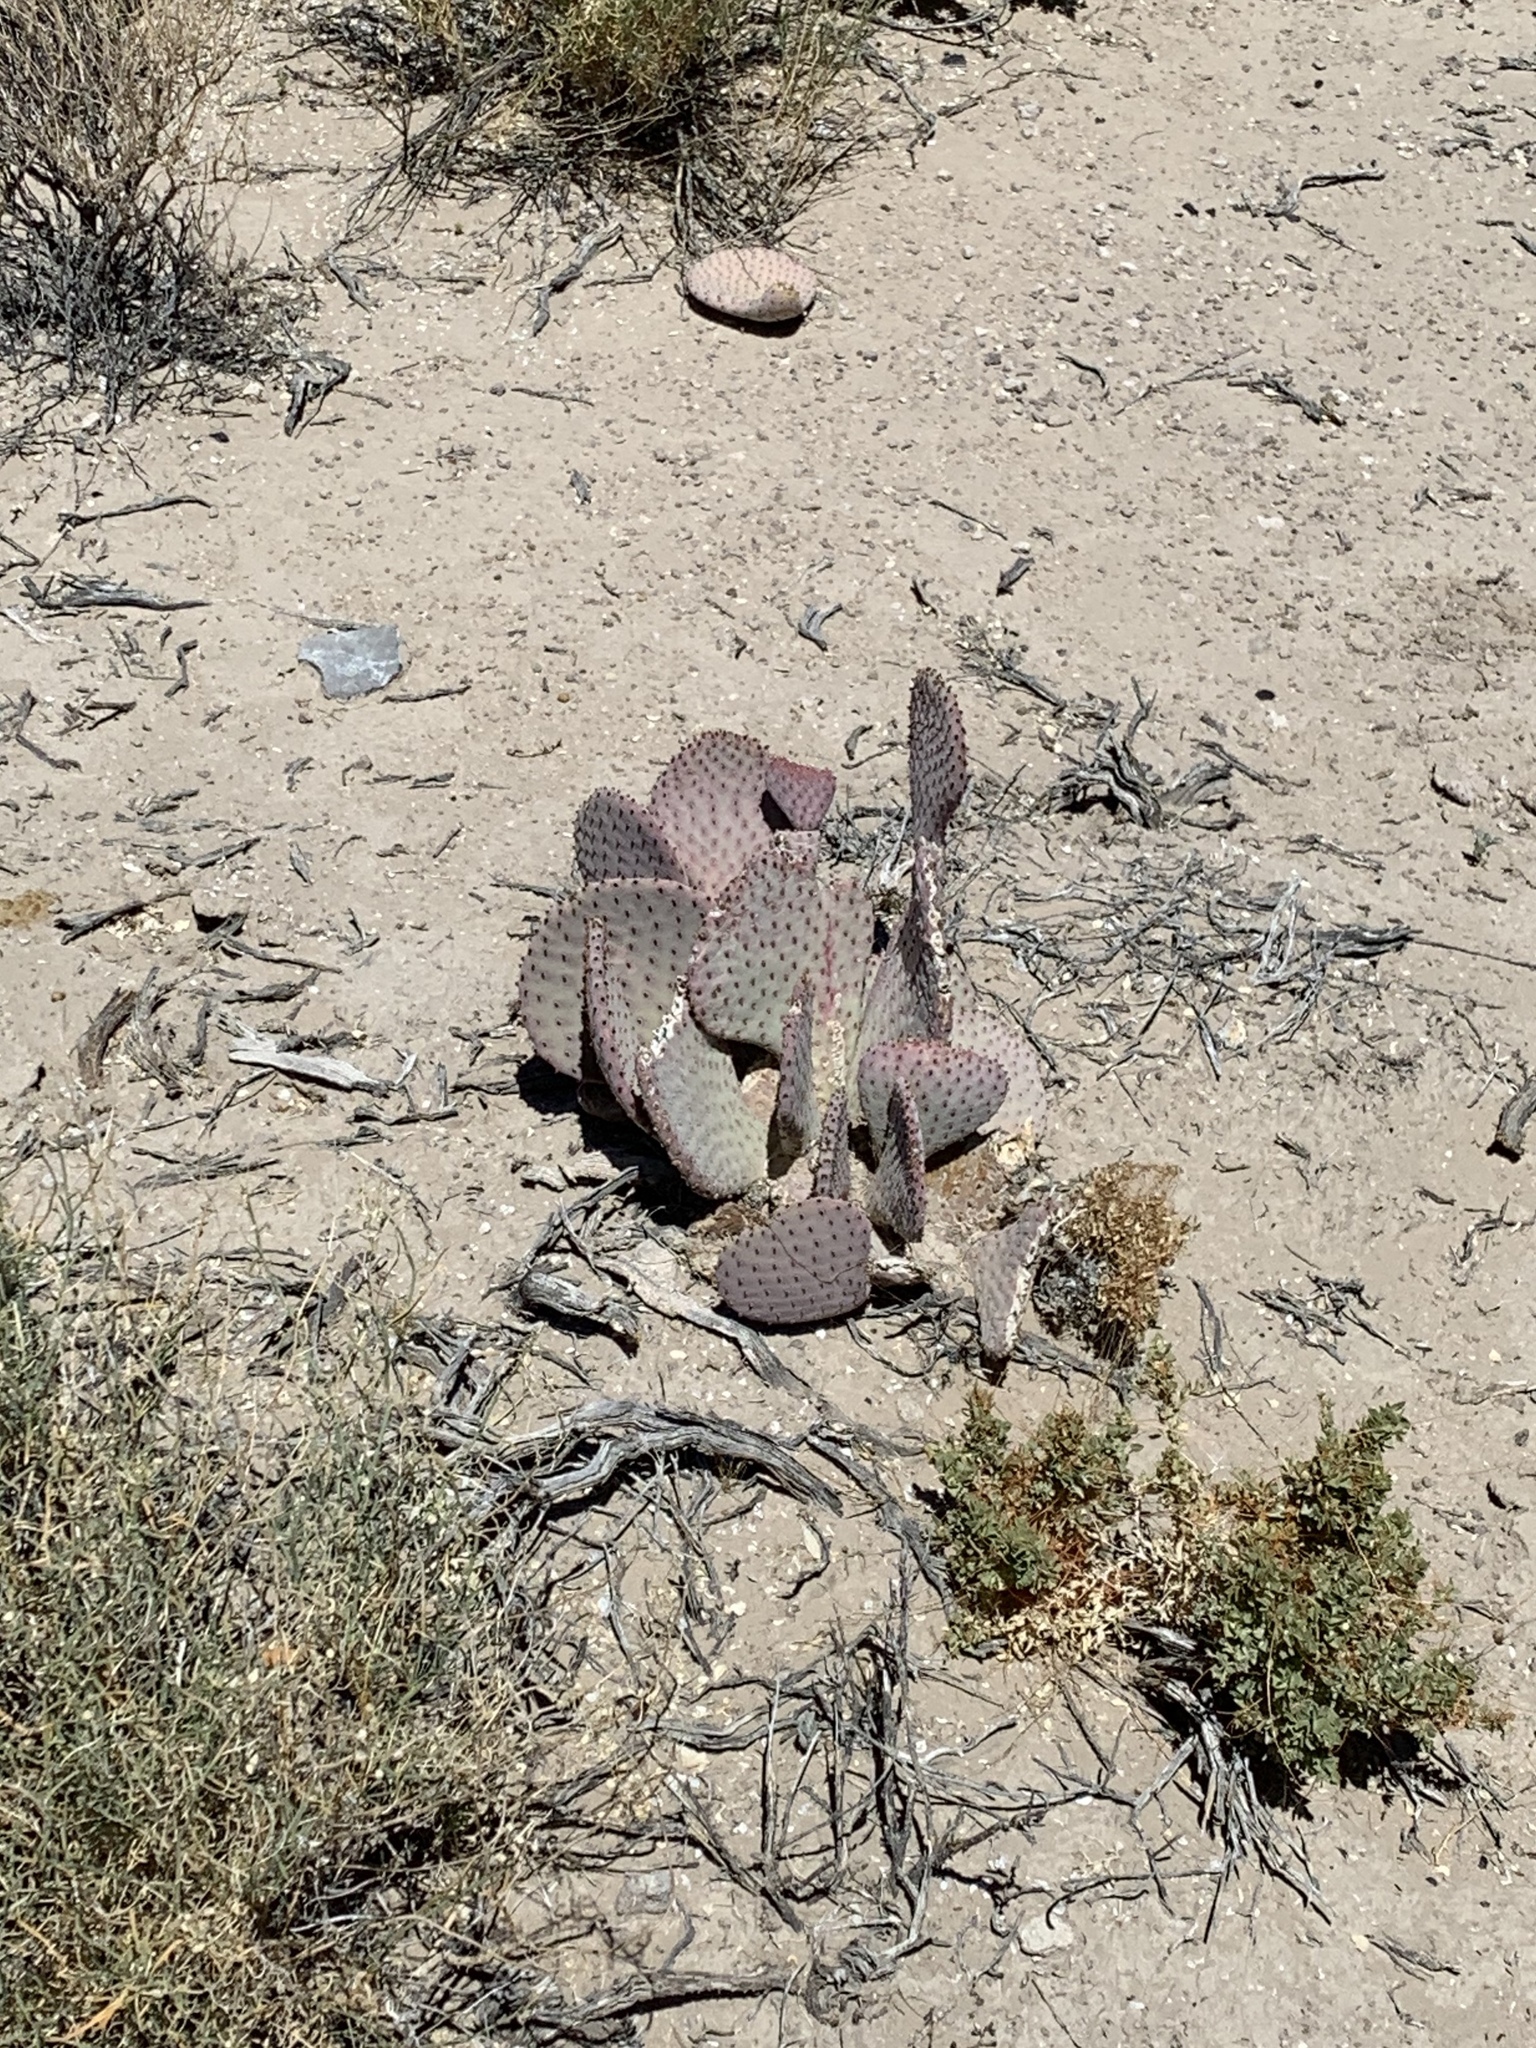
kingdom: Plantae
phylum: Tracheophyta
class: Magnoliopsida
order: Caryophyllales
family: Cactaceae
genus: Opuntia
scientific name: Opuntia basilaris
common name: Beavertail prickly-pear
